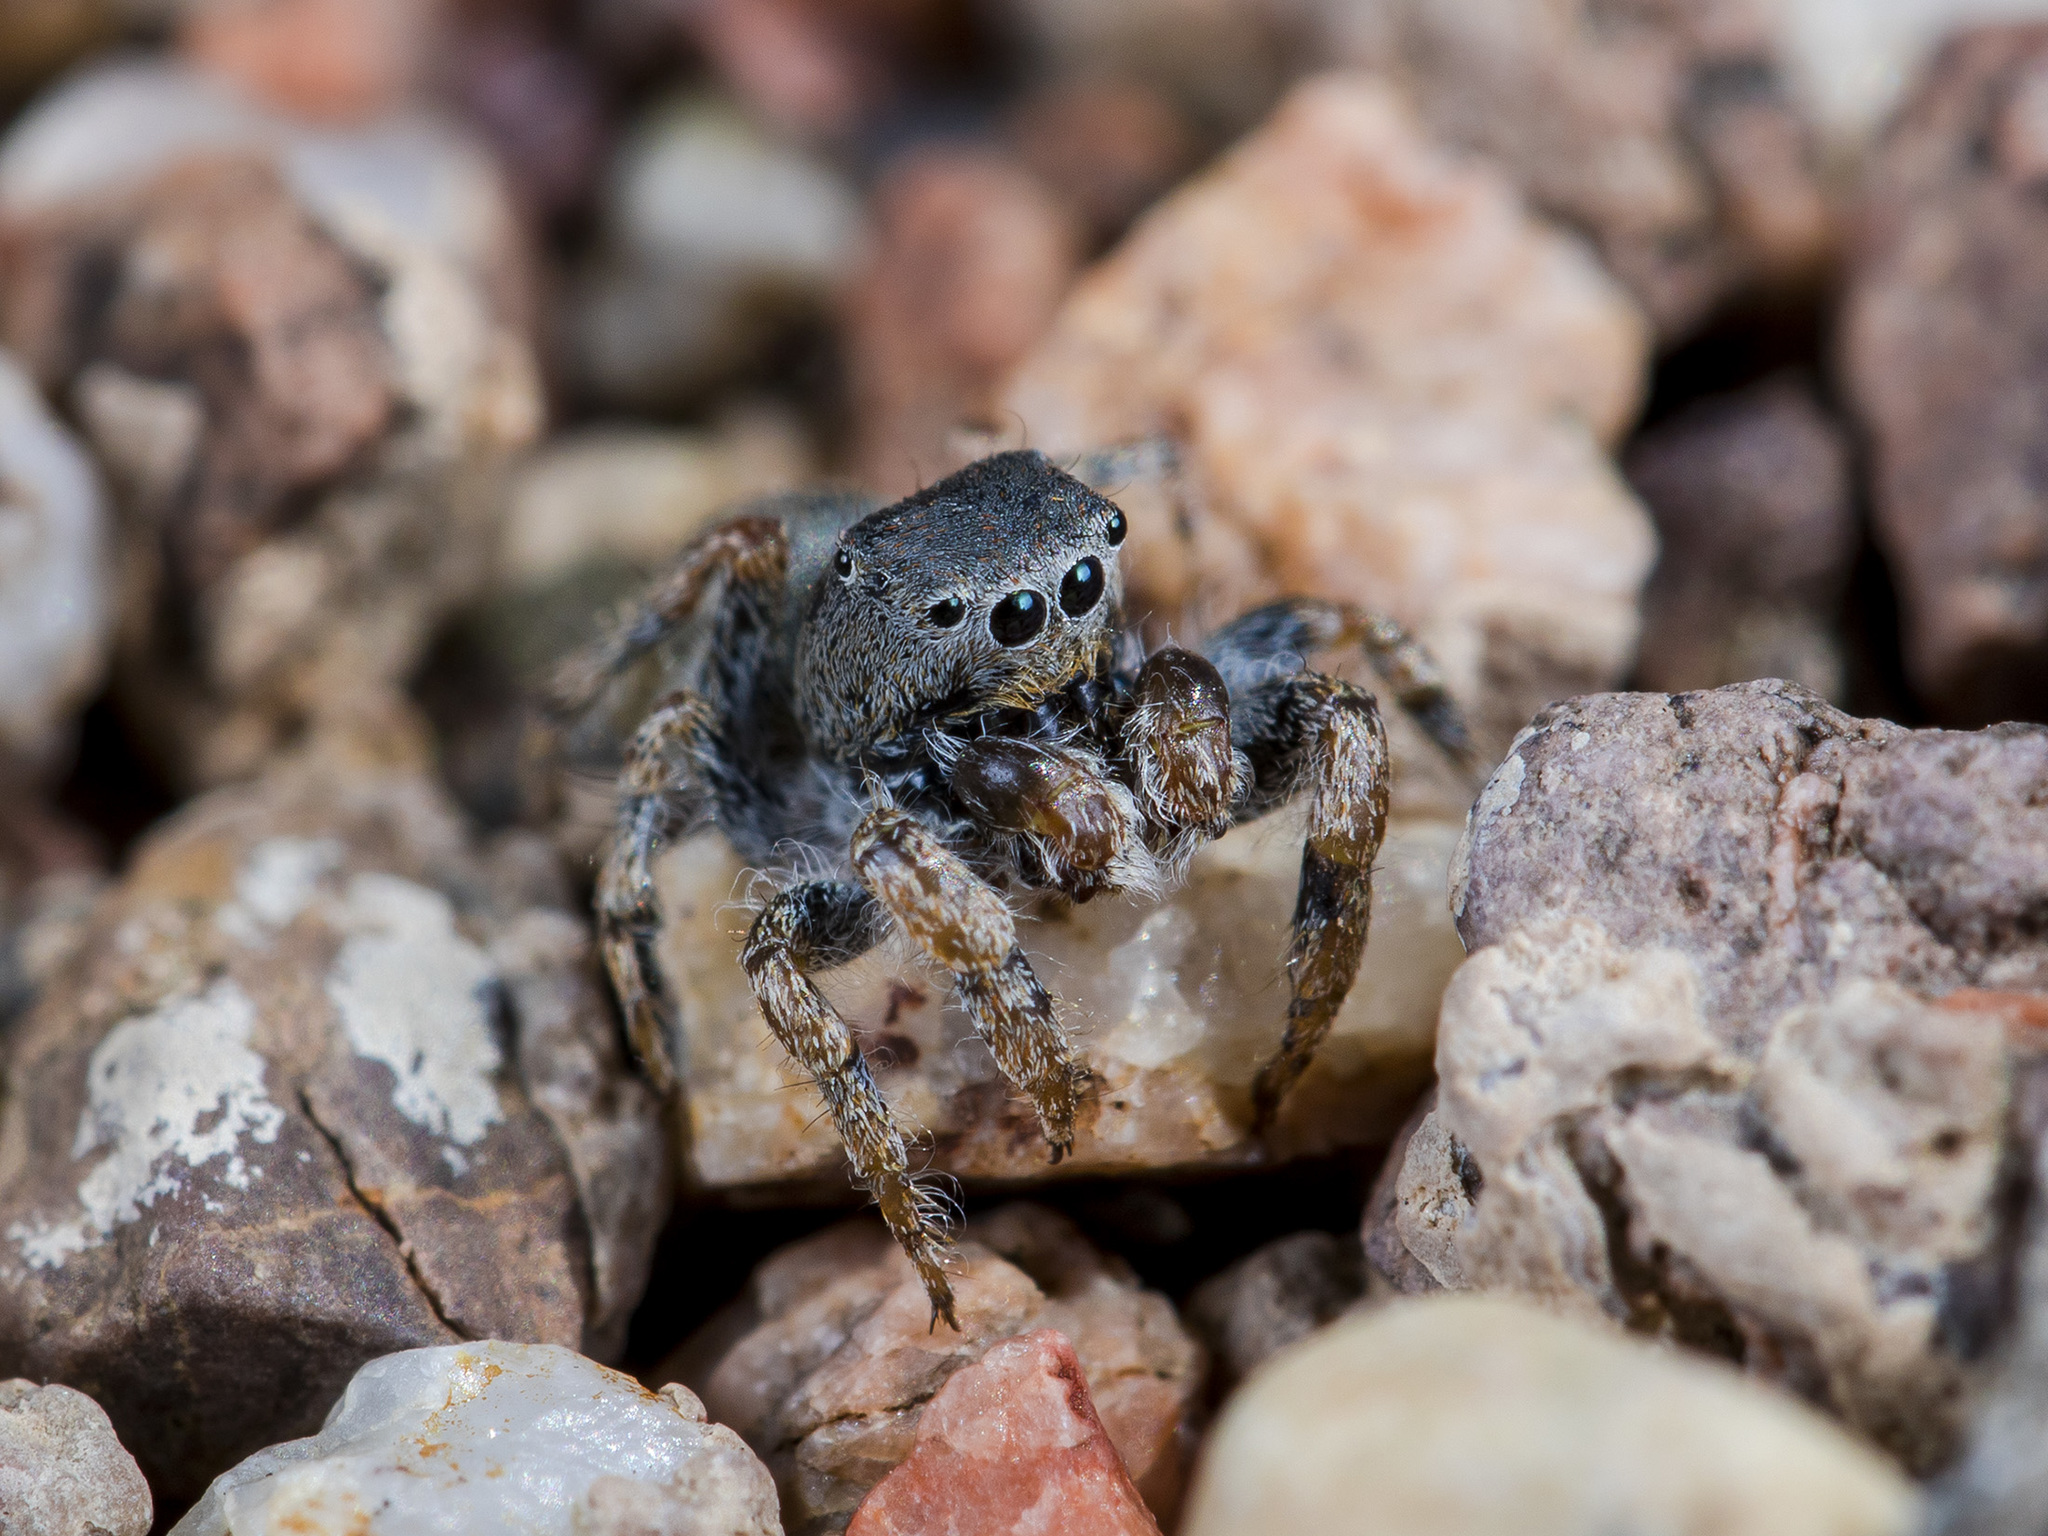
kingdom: Animalia
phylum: Arthropoda
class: Arachnida
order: Araneae
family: Salticidae
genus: Yllenus
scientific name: Yllenus zyuzini
